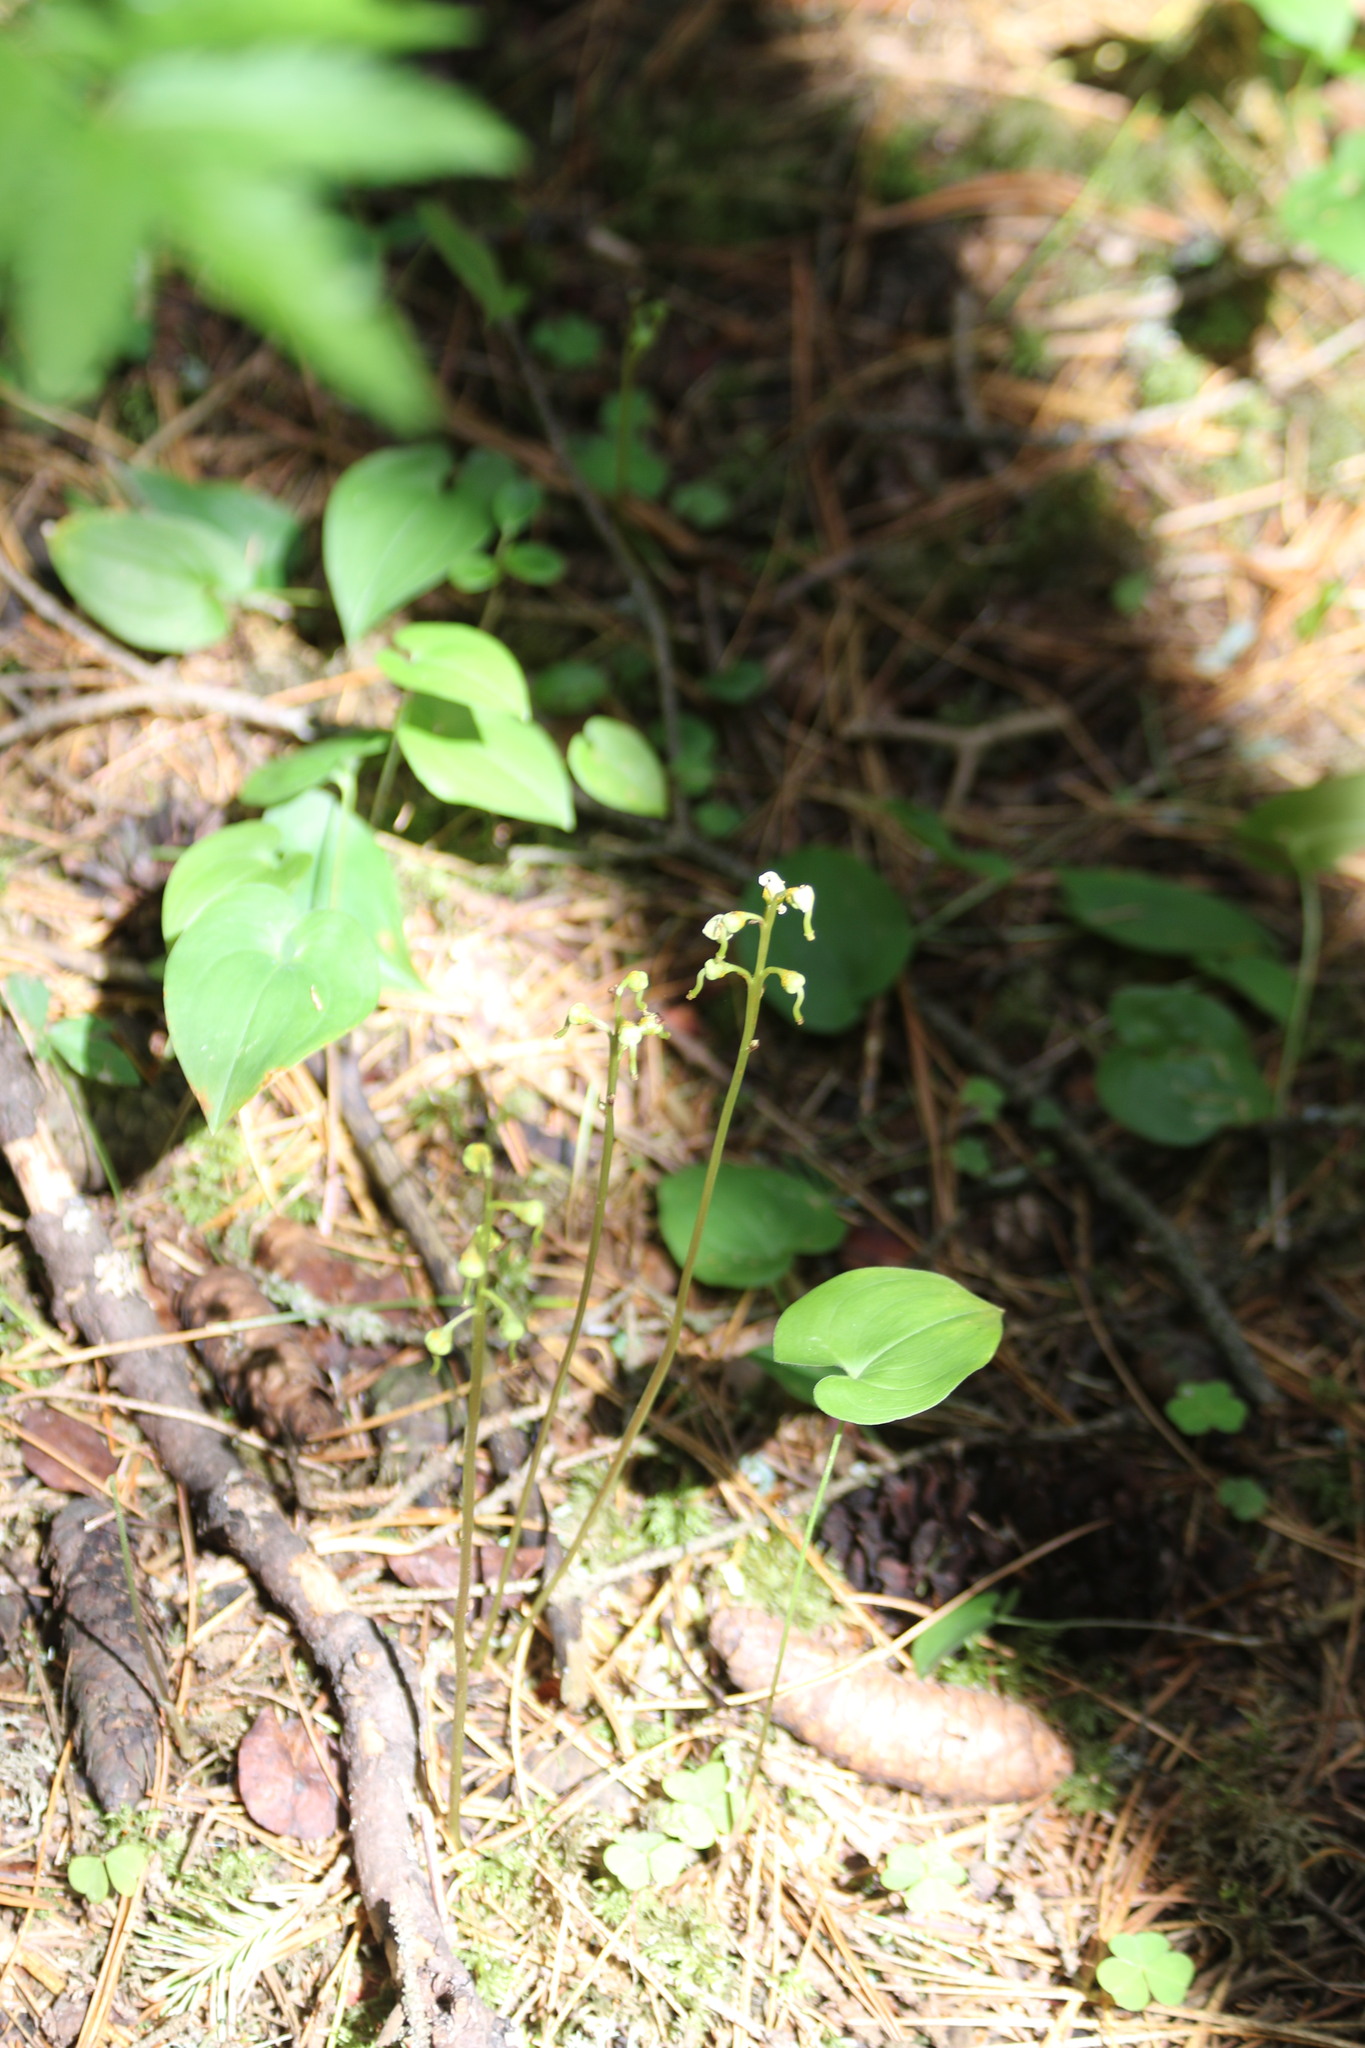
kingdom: Plantae
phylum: Tracheophyta
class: Magnoliopsida
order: Ericales
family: Ericaceae
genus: Pyrola
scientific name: Pyrola chlorantha
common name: Green wintergreen
